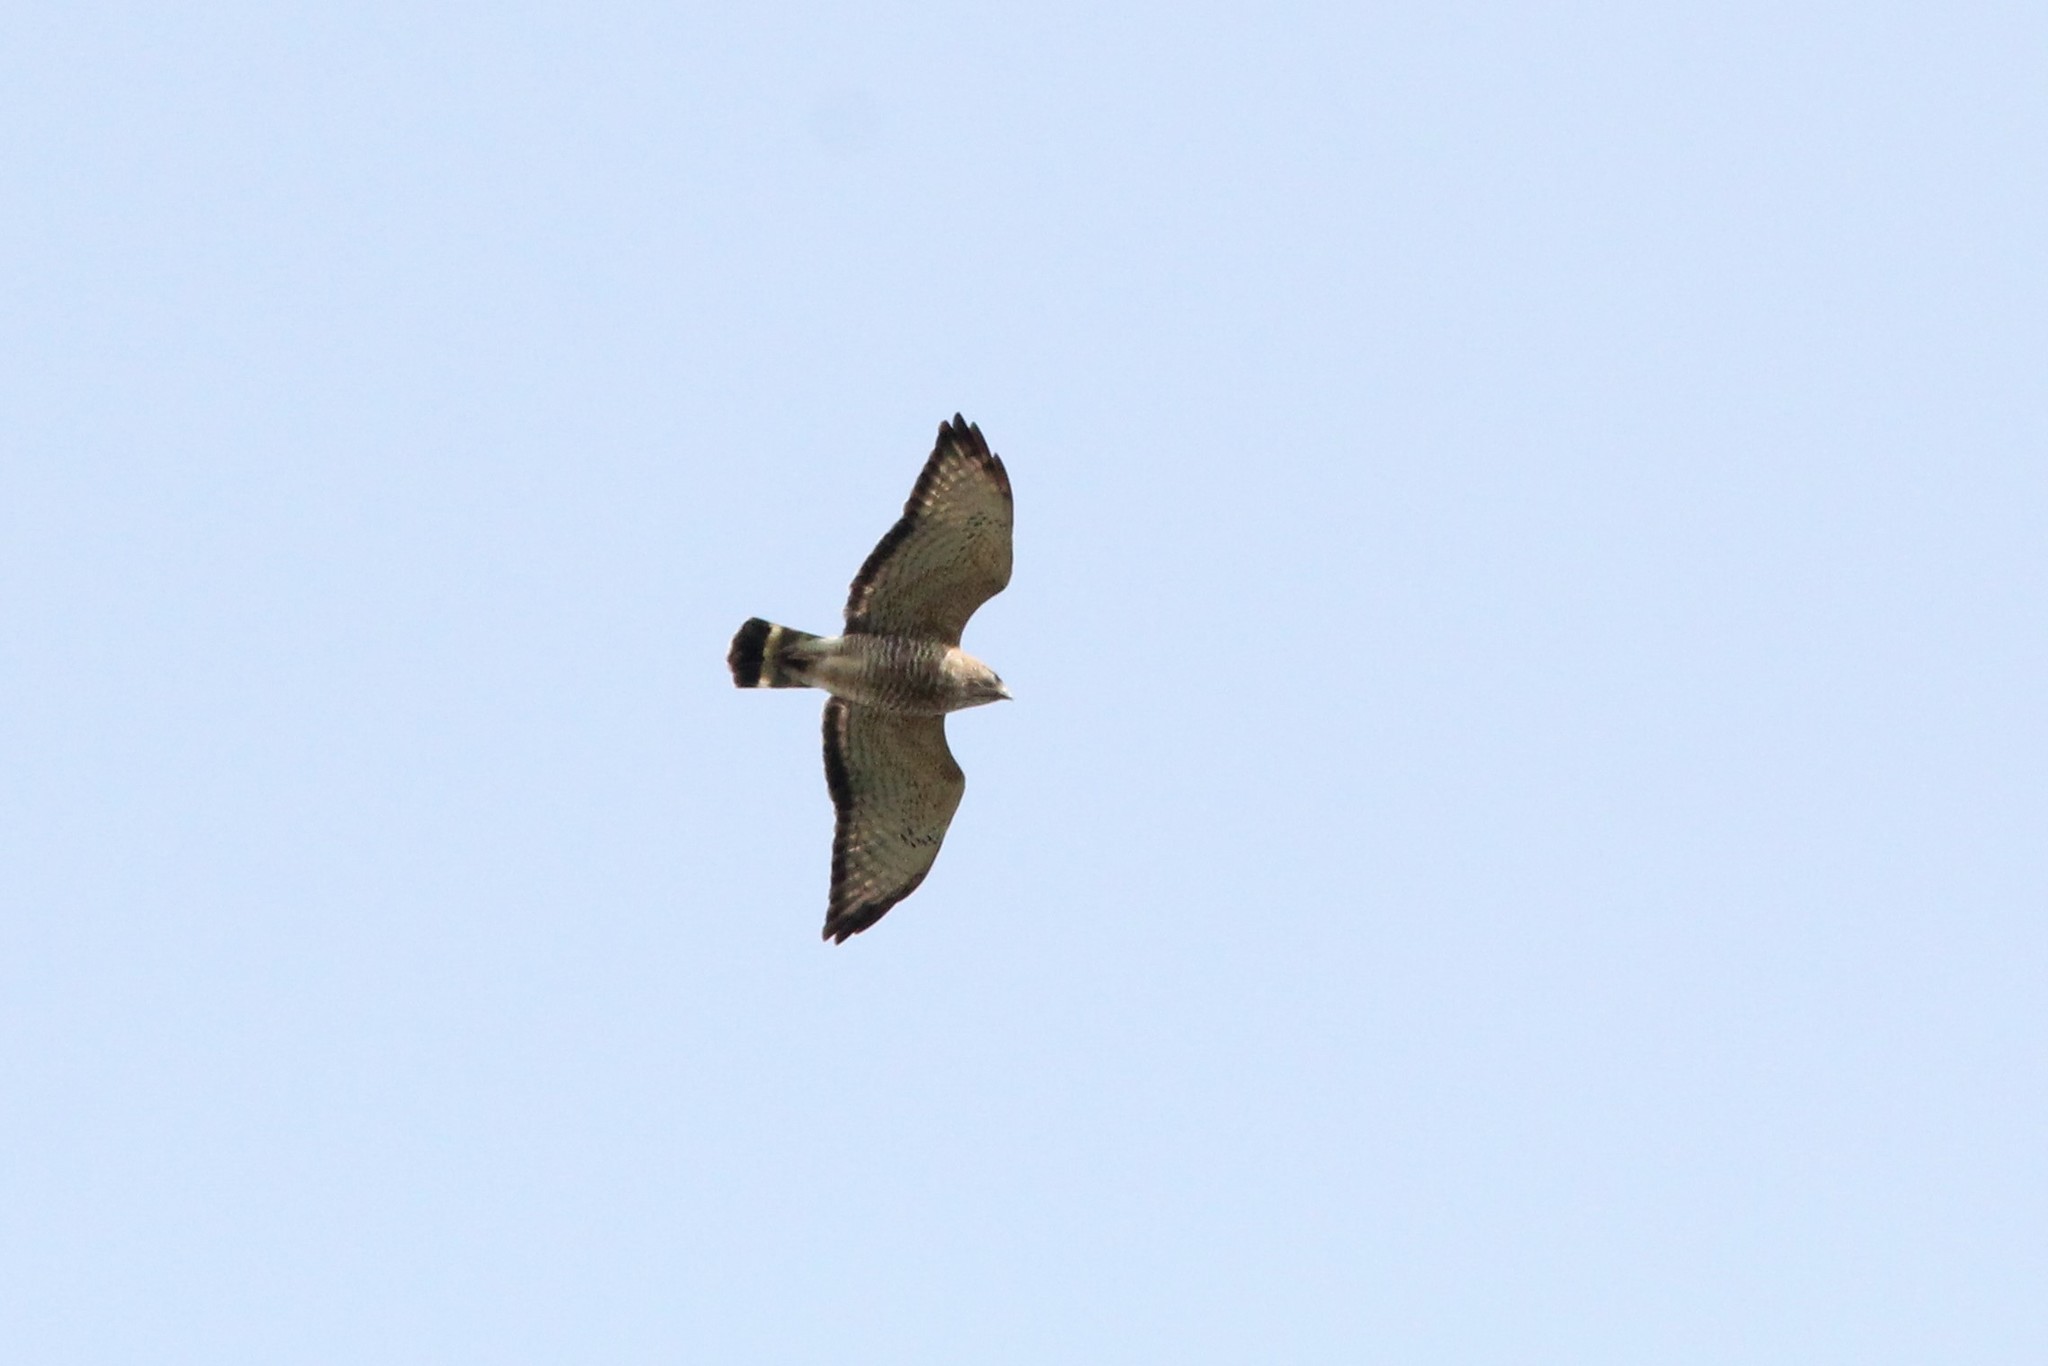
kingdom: Animalia
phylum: Chordata
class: Aves
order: Accipitriformes
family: Accipitridae
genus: Buteo
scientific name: Buteo platypterus
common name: Broad-winged hawk
